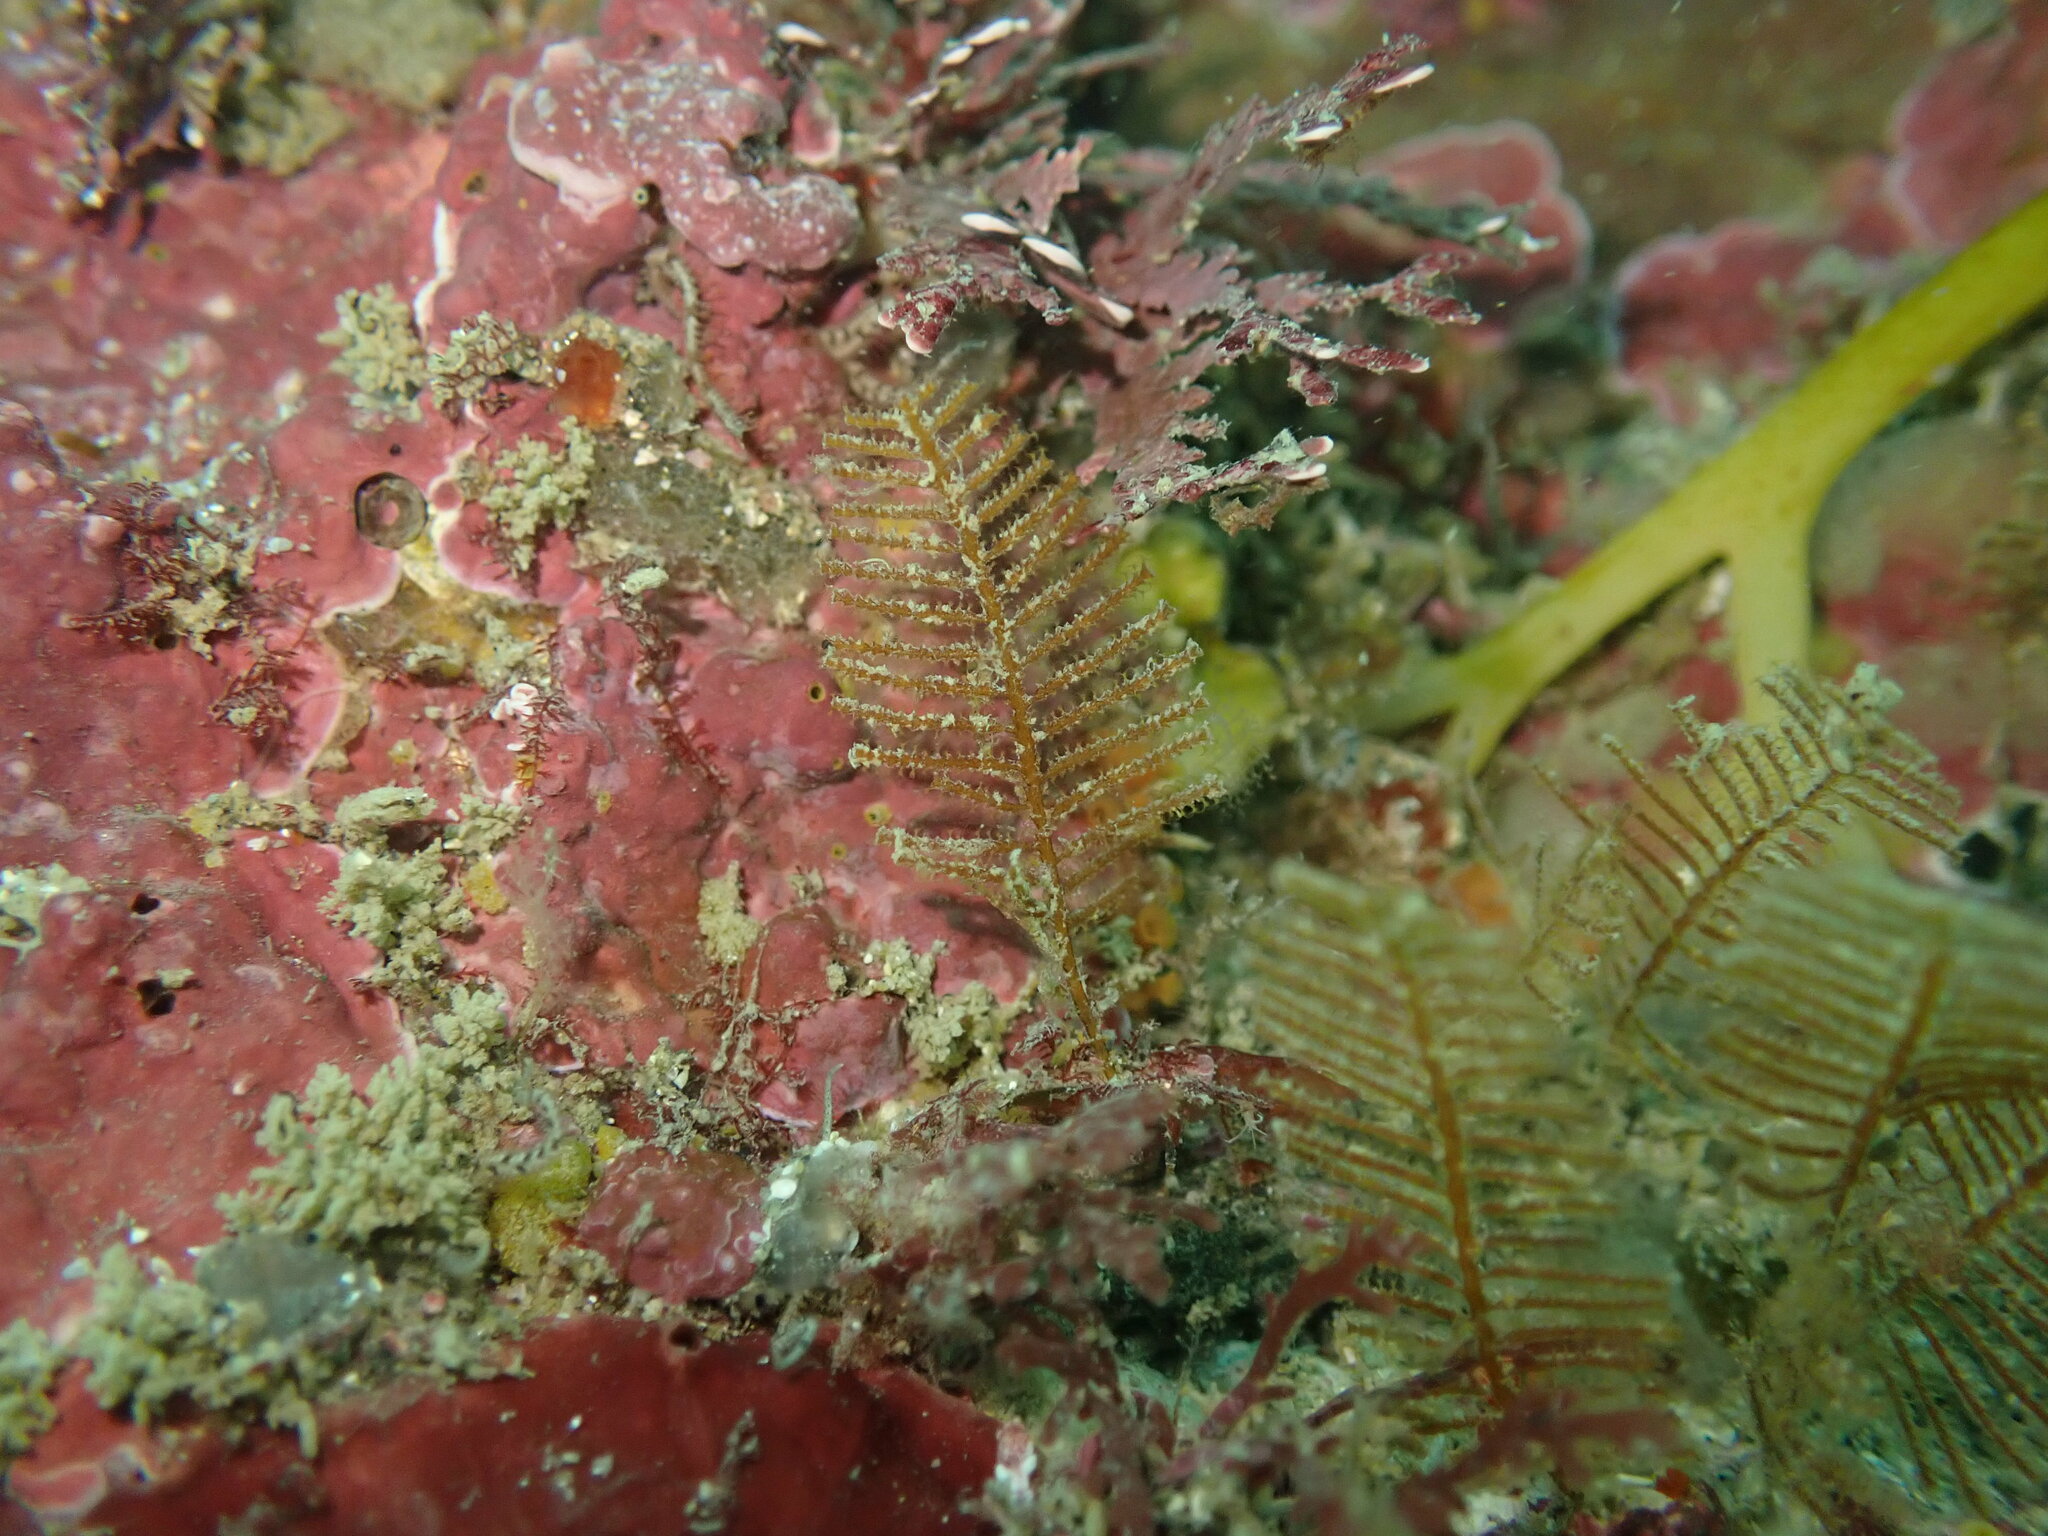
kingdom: Animalia
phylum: Cnidaria
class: Hydrozoa
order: Leptothecata
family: Sertulariidae
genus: Sertularia
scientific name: Sertularia unguiculata
